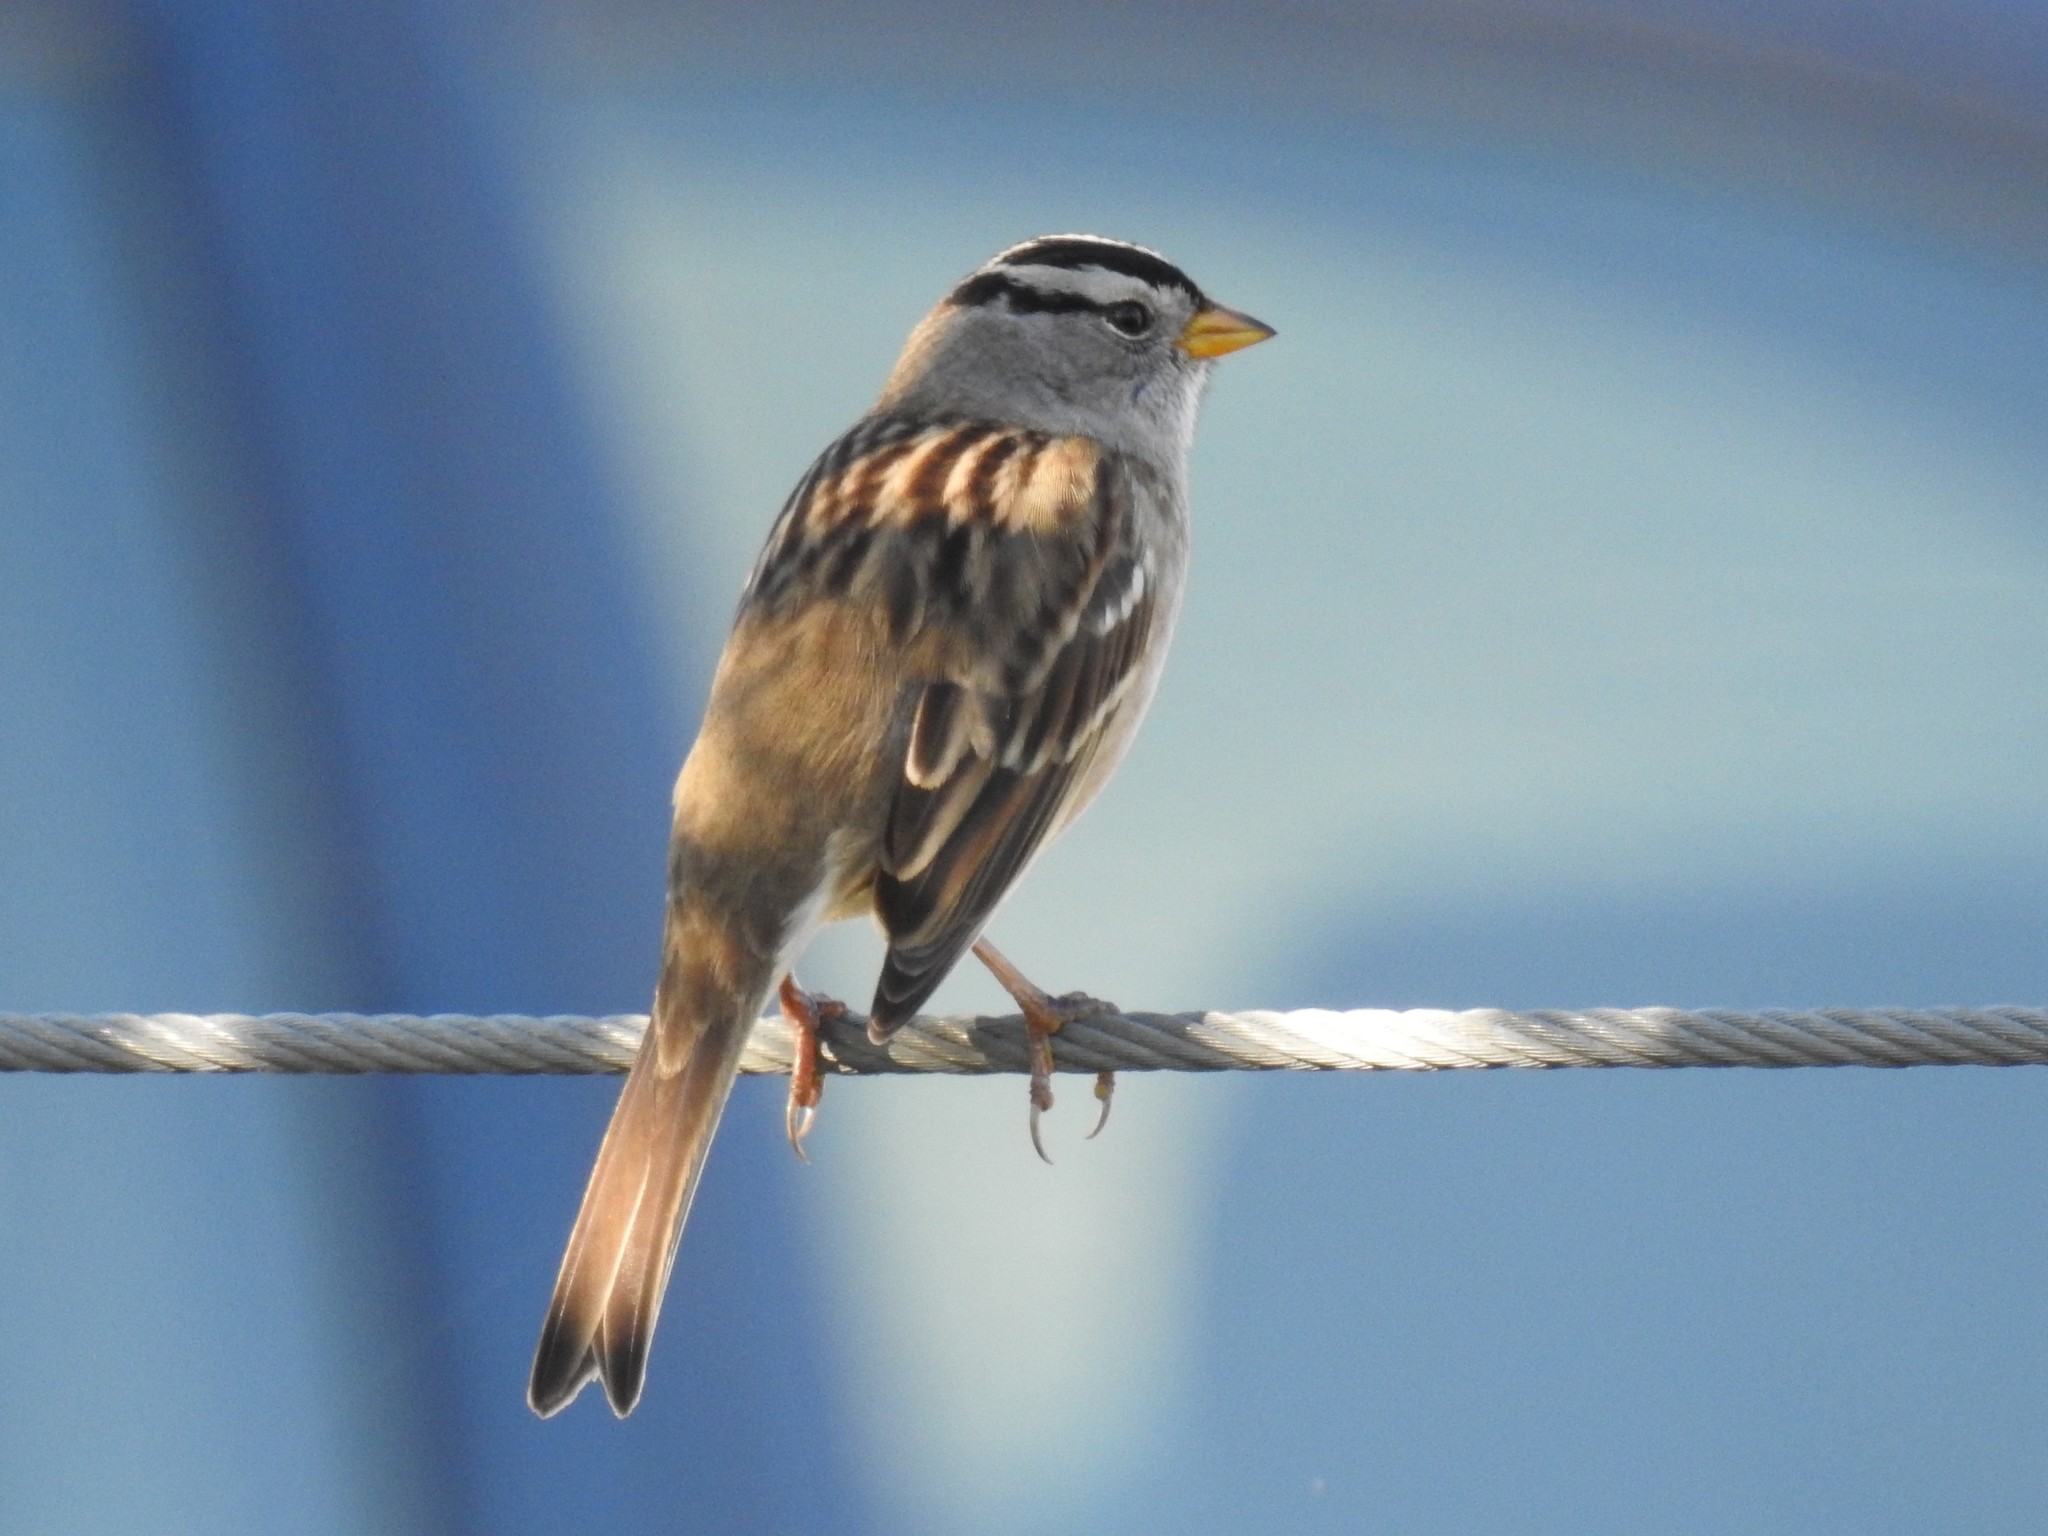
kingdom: Animalia
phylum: Chordata
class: Aves
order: Passeriformes
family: Passerellidae
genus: Zonotrichia
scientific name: Zonotrichia leucophrys
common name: White-crowned sparrow
